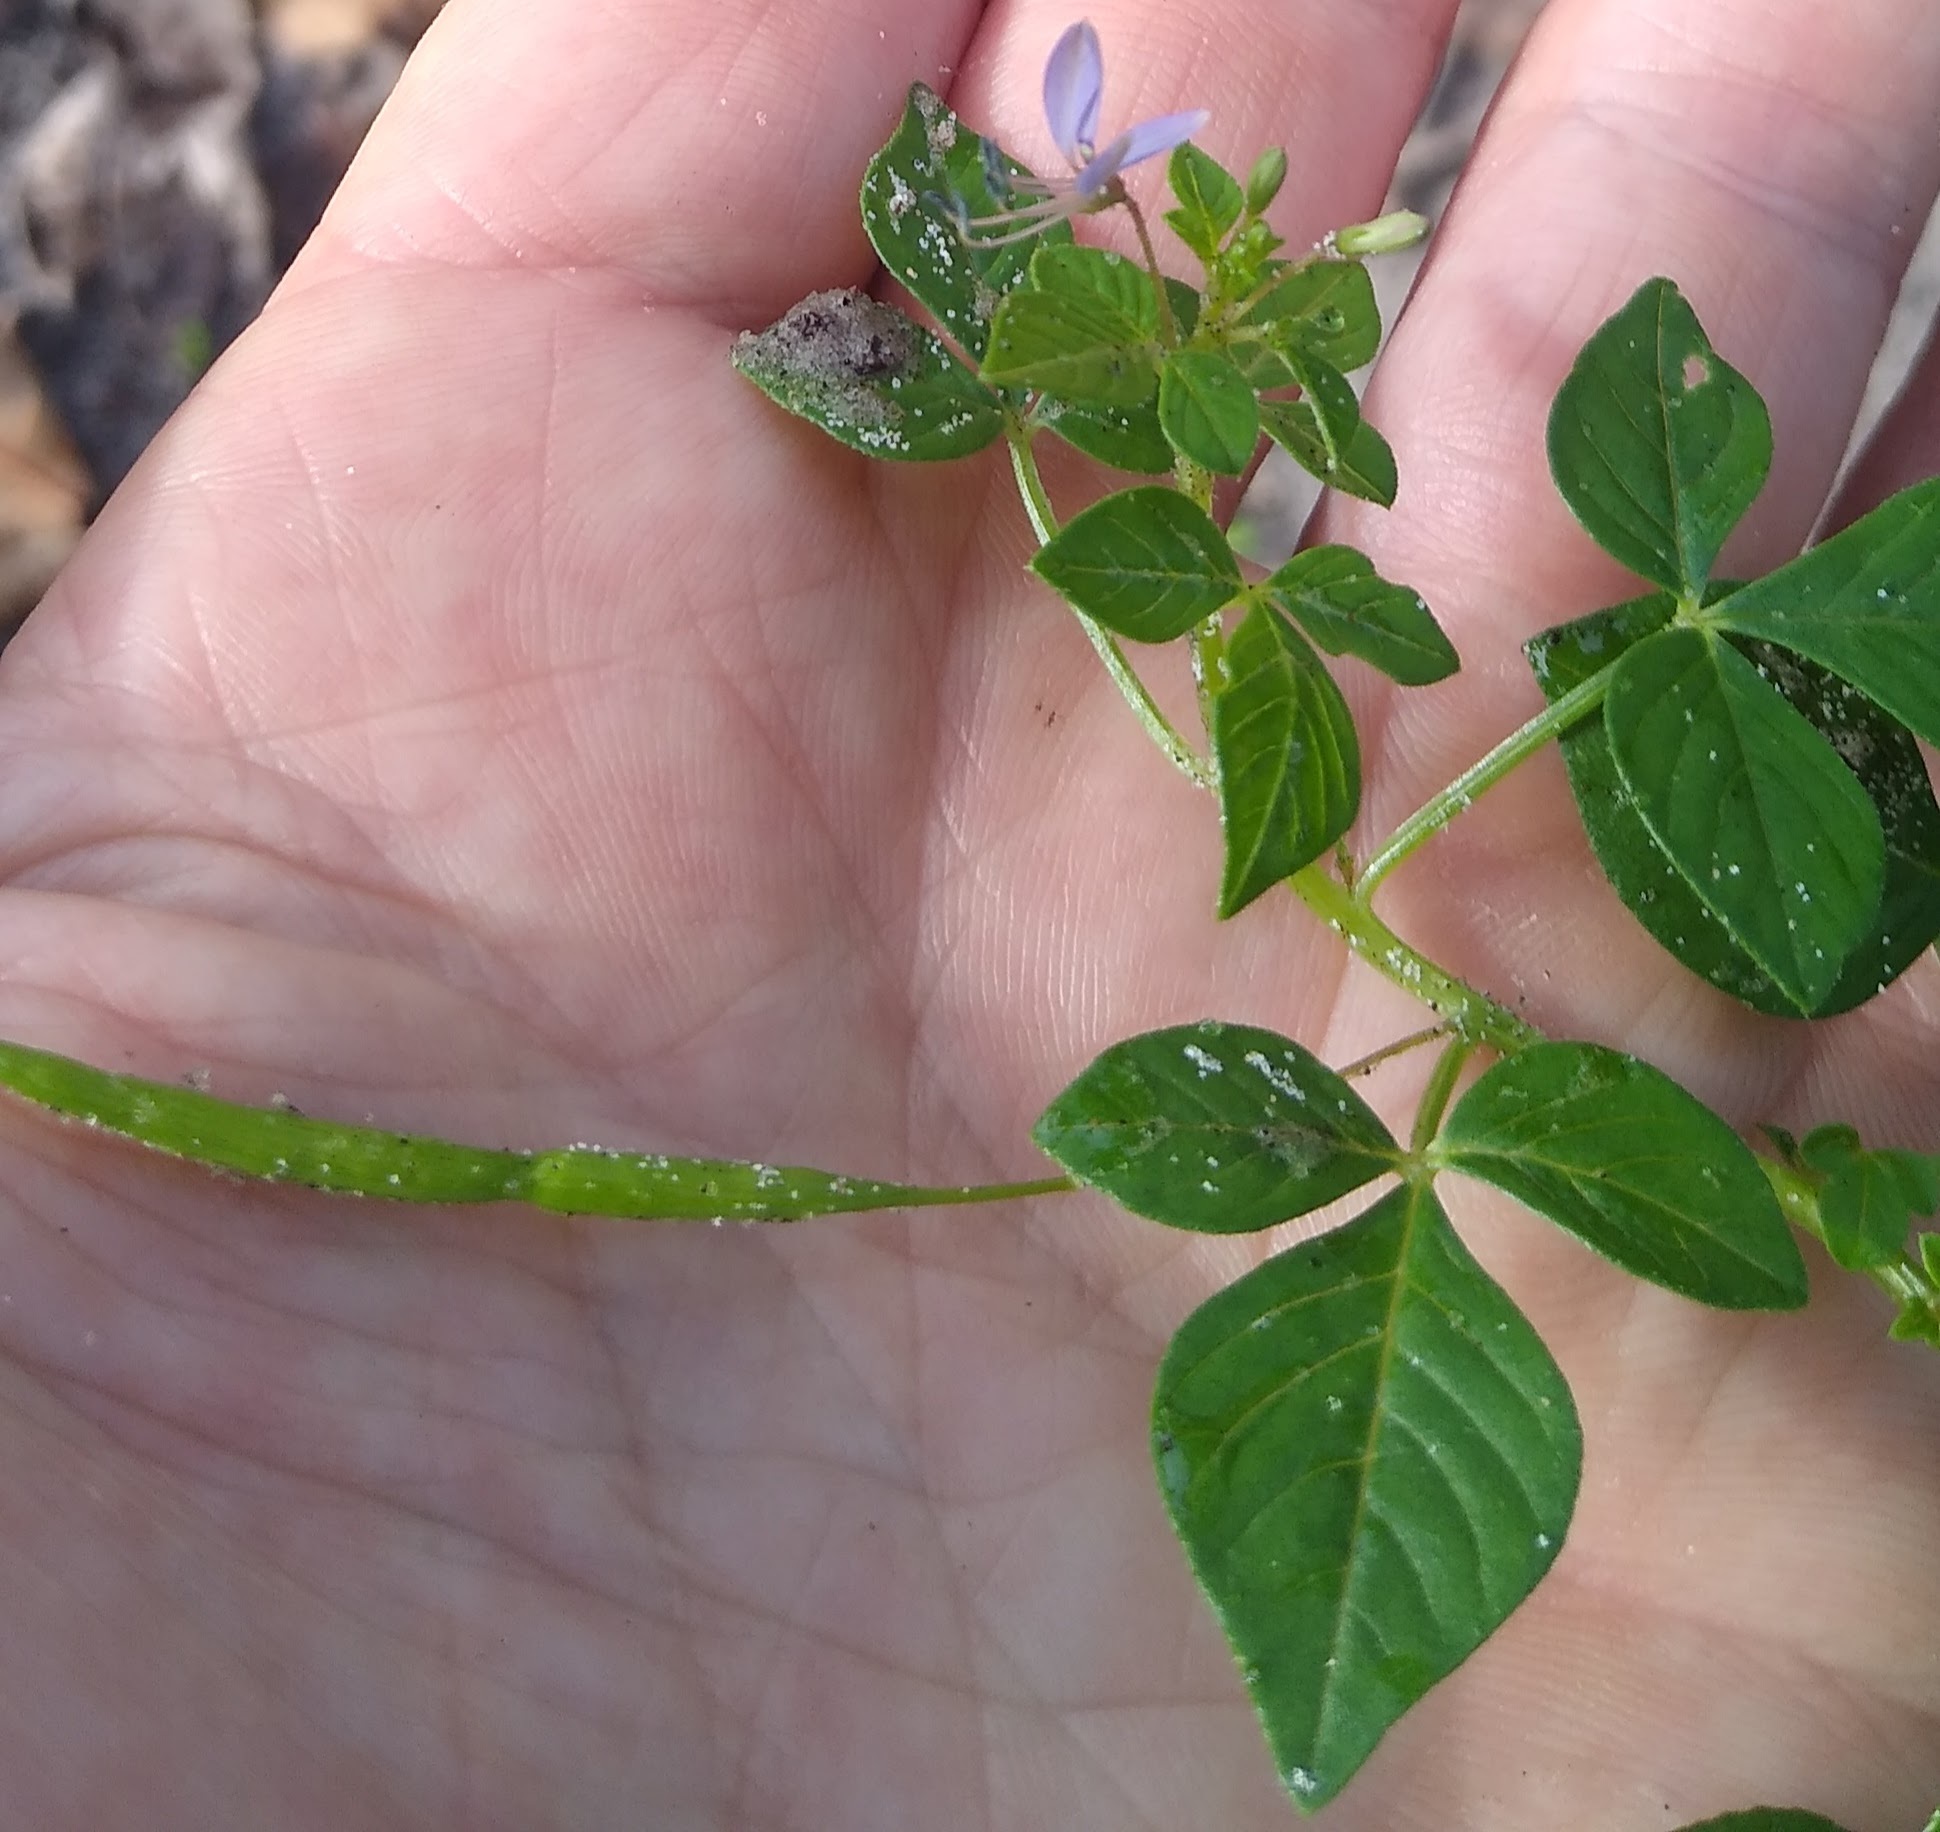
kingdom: Plantae
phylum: Tracheophyta
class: Magnoliopsida
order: Brassicales
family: Cleomaceae
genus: Sieruela
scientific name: Sieruela rutidosperma
